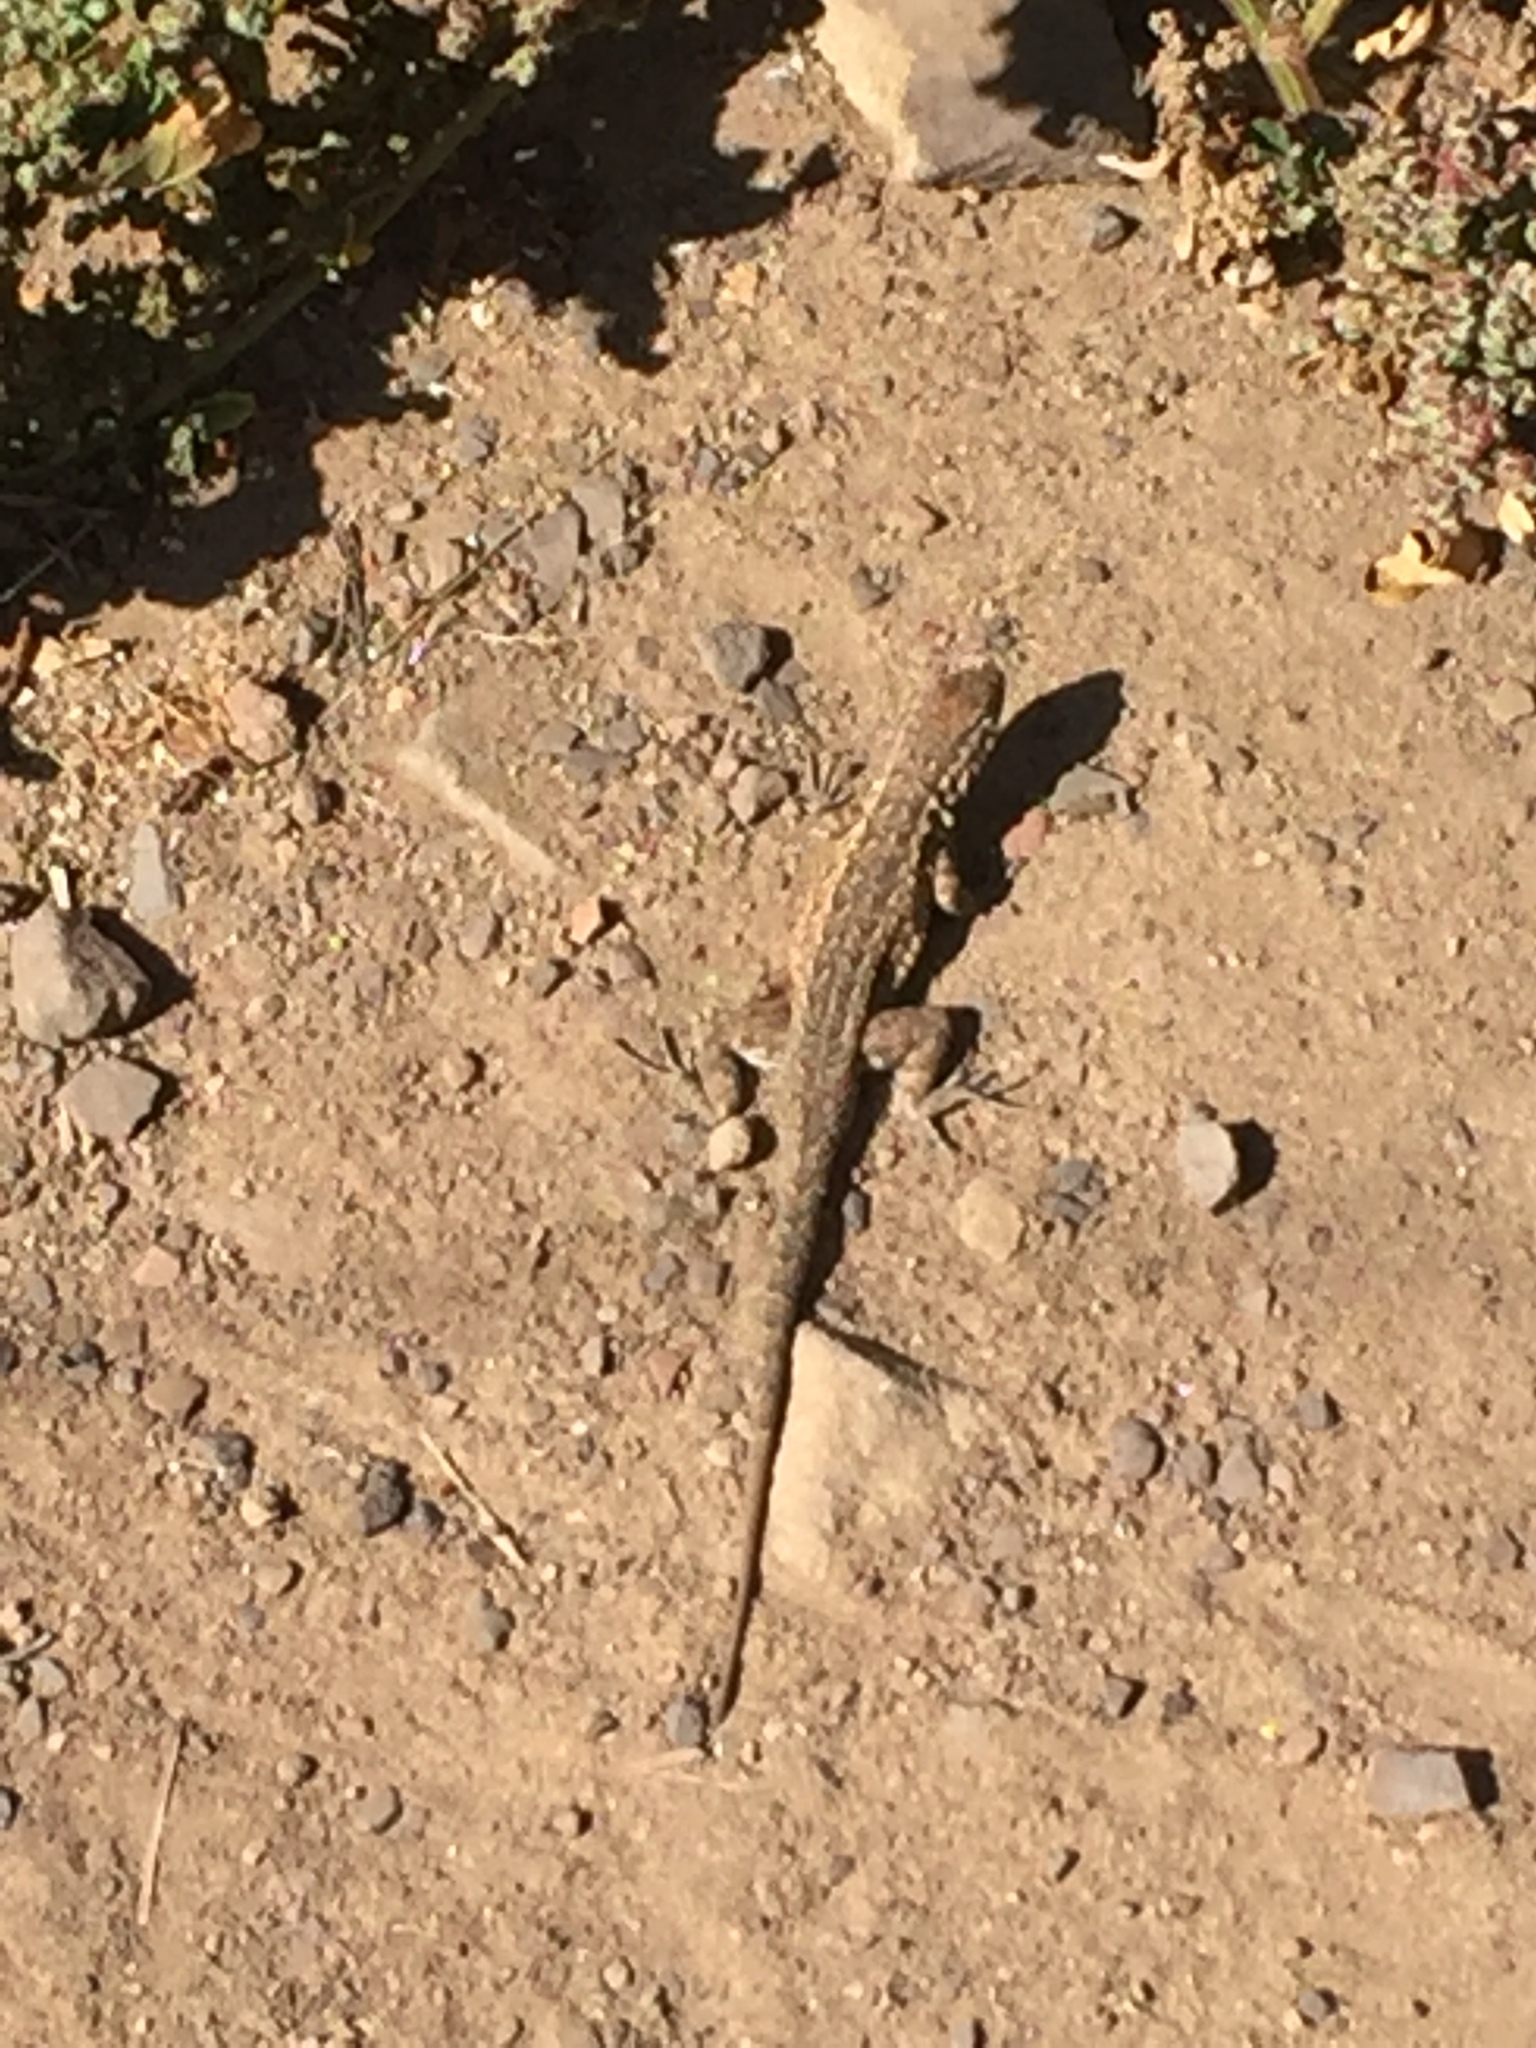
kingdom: Animalia
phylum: Chordata
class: Squamata
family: Phrynosomatidae
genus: Uta
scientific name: Uta stansburiana
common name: Side-blotched lizard
